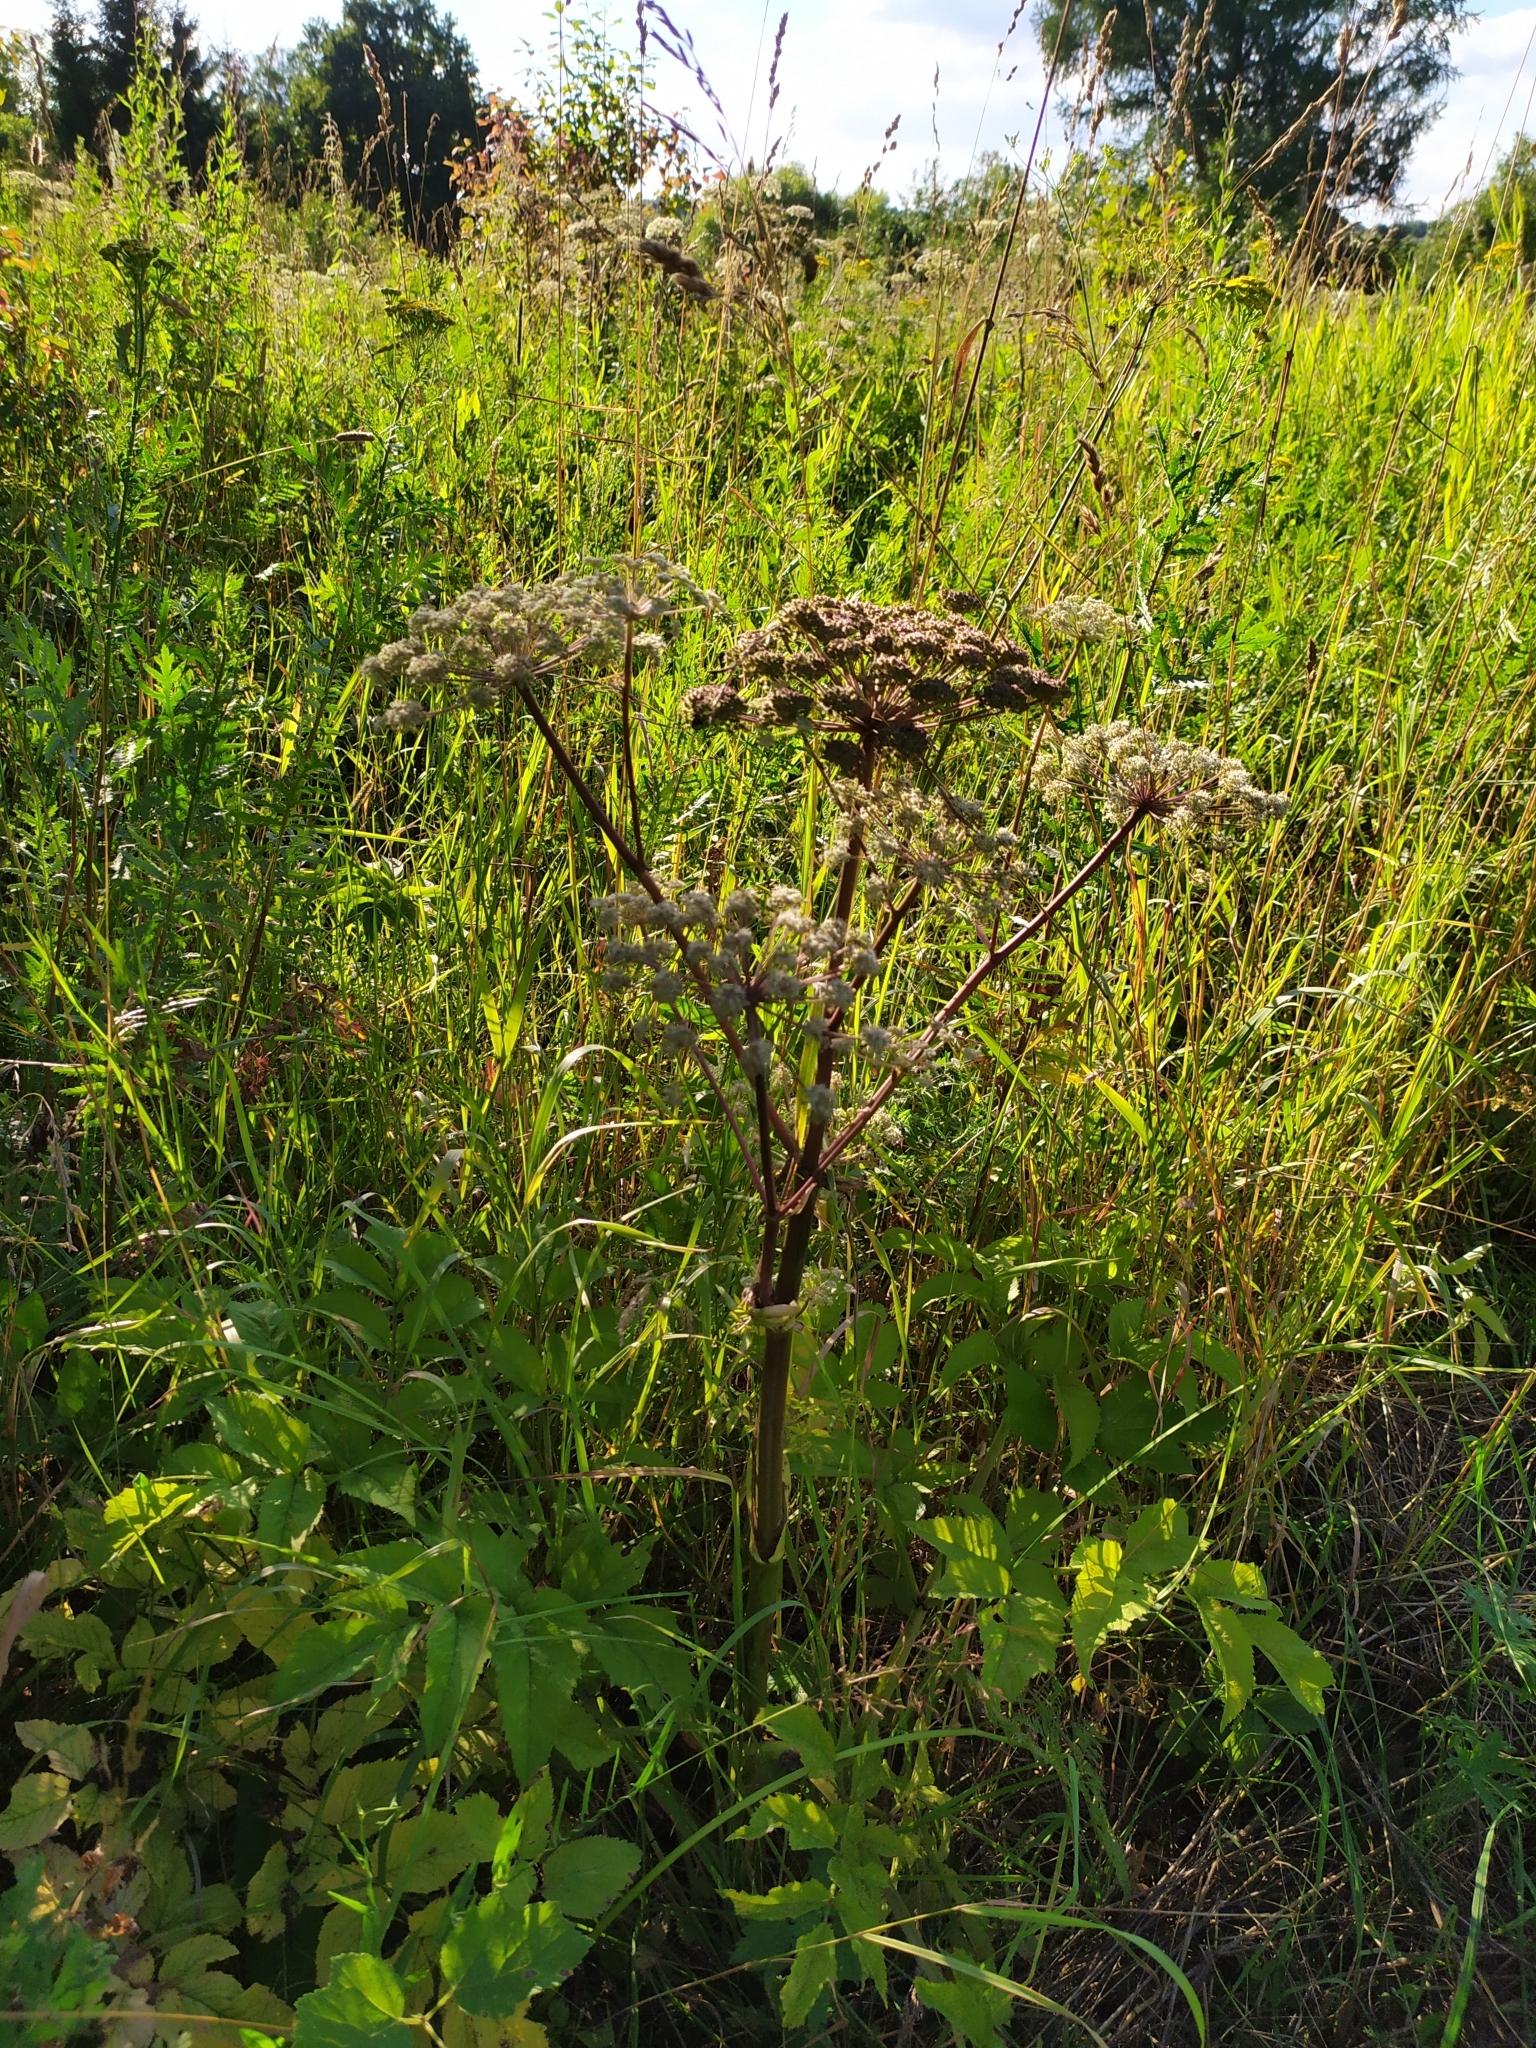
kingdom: Plantae
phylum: Tracheophyta
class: Magnoliopsida
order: Apiales
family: Apiaceae
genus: Angelica
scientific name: Angelica sylvestris
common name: Wild angelica
